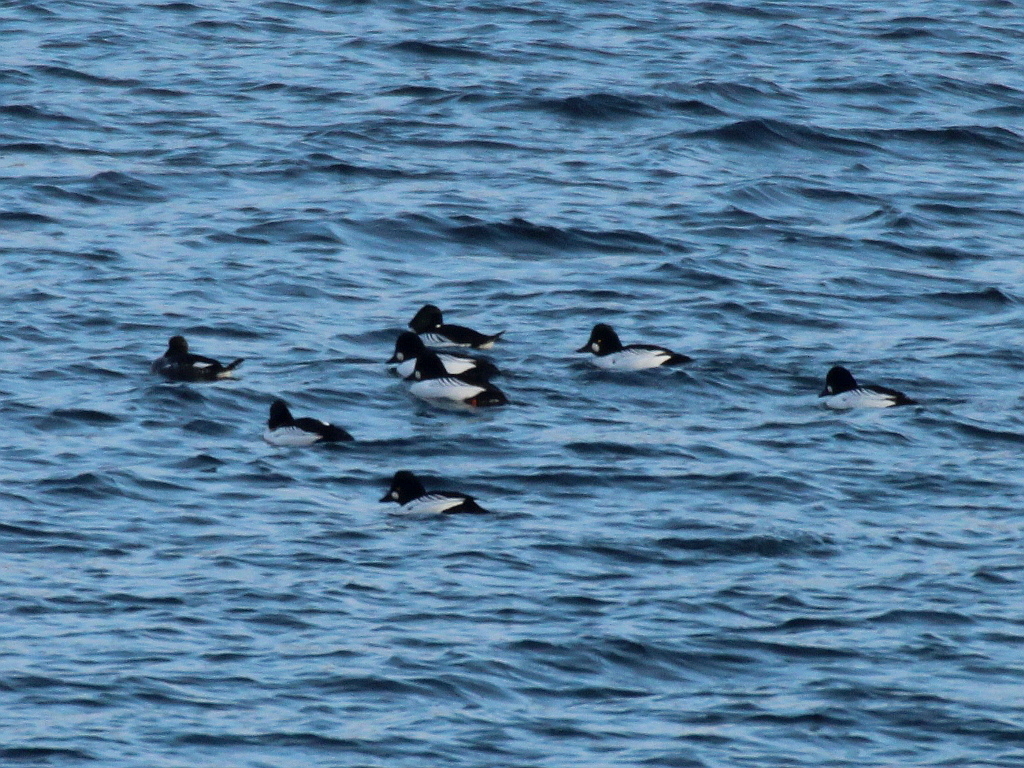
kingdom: Animalia
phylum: Chordata
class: Aves
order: Anseriformes
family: Anatidae
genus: Bucephala
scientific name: Bucephala clangula
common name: Common goldeneye
